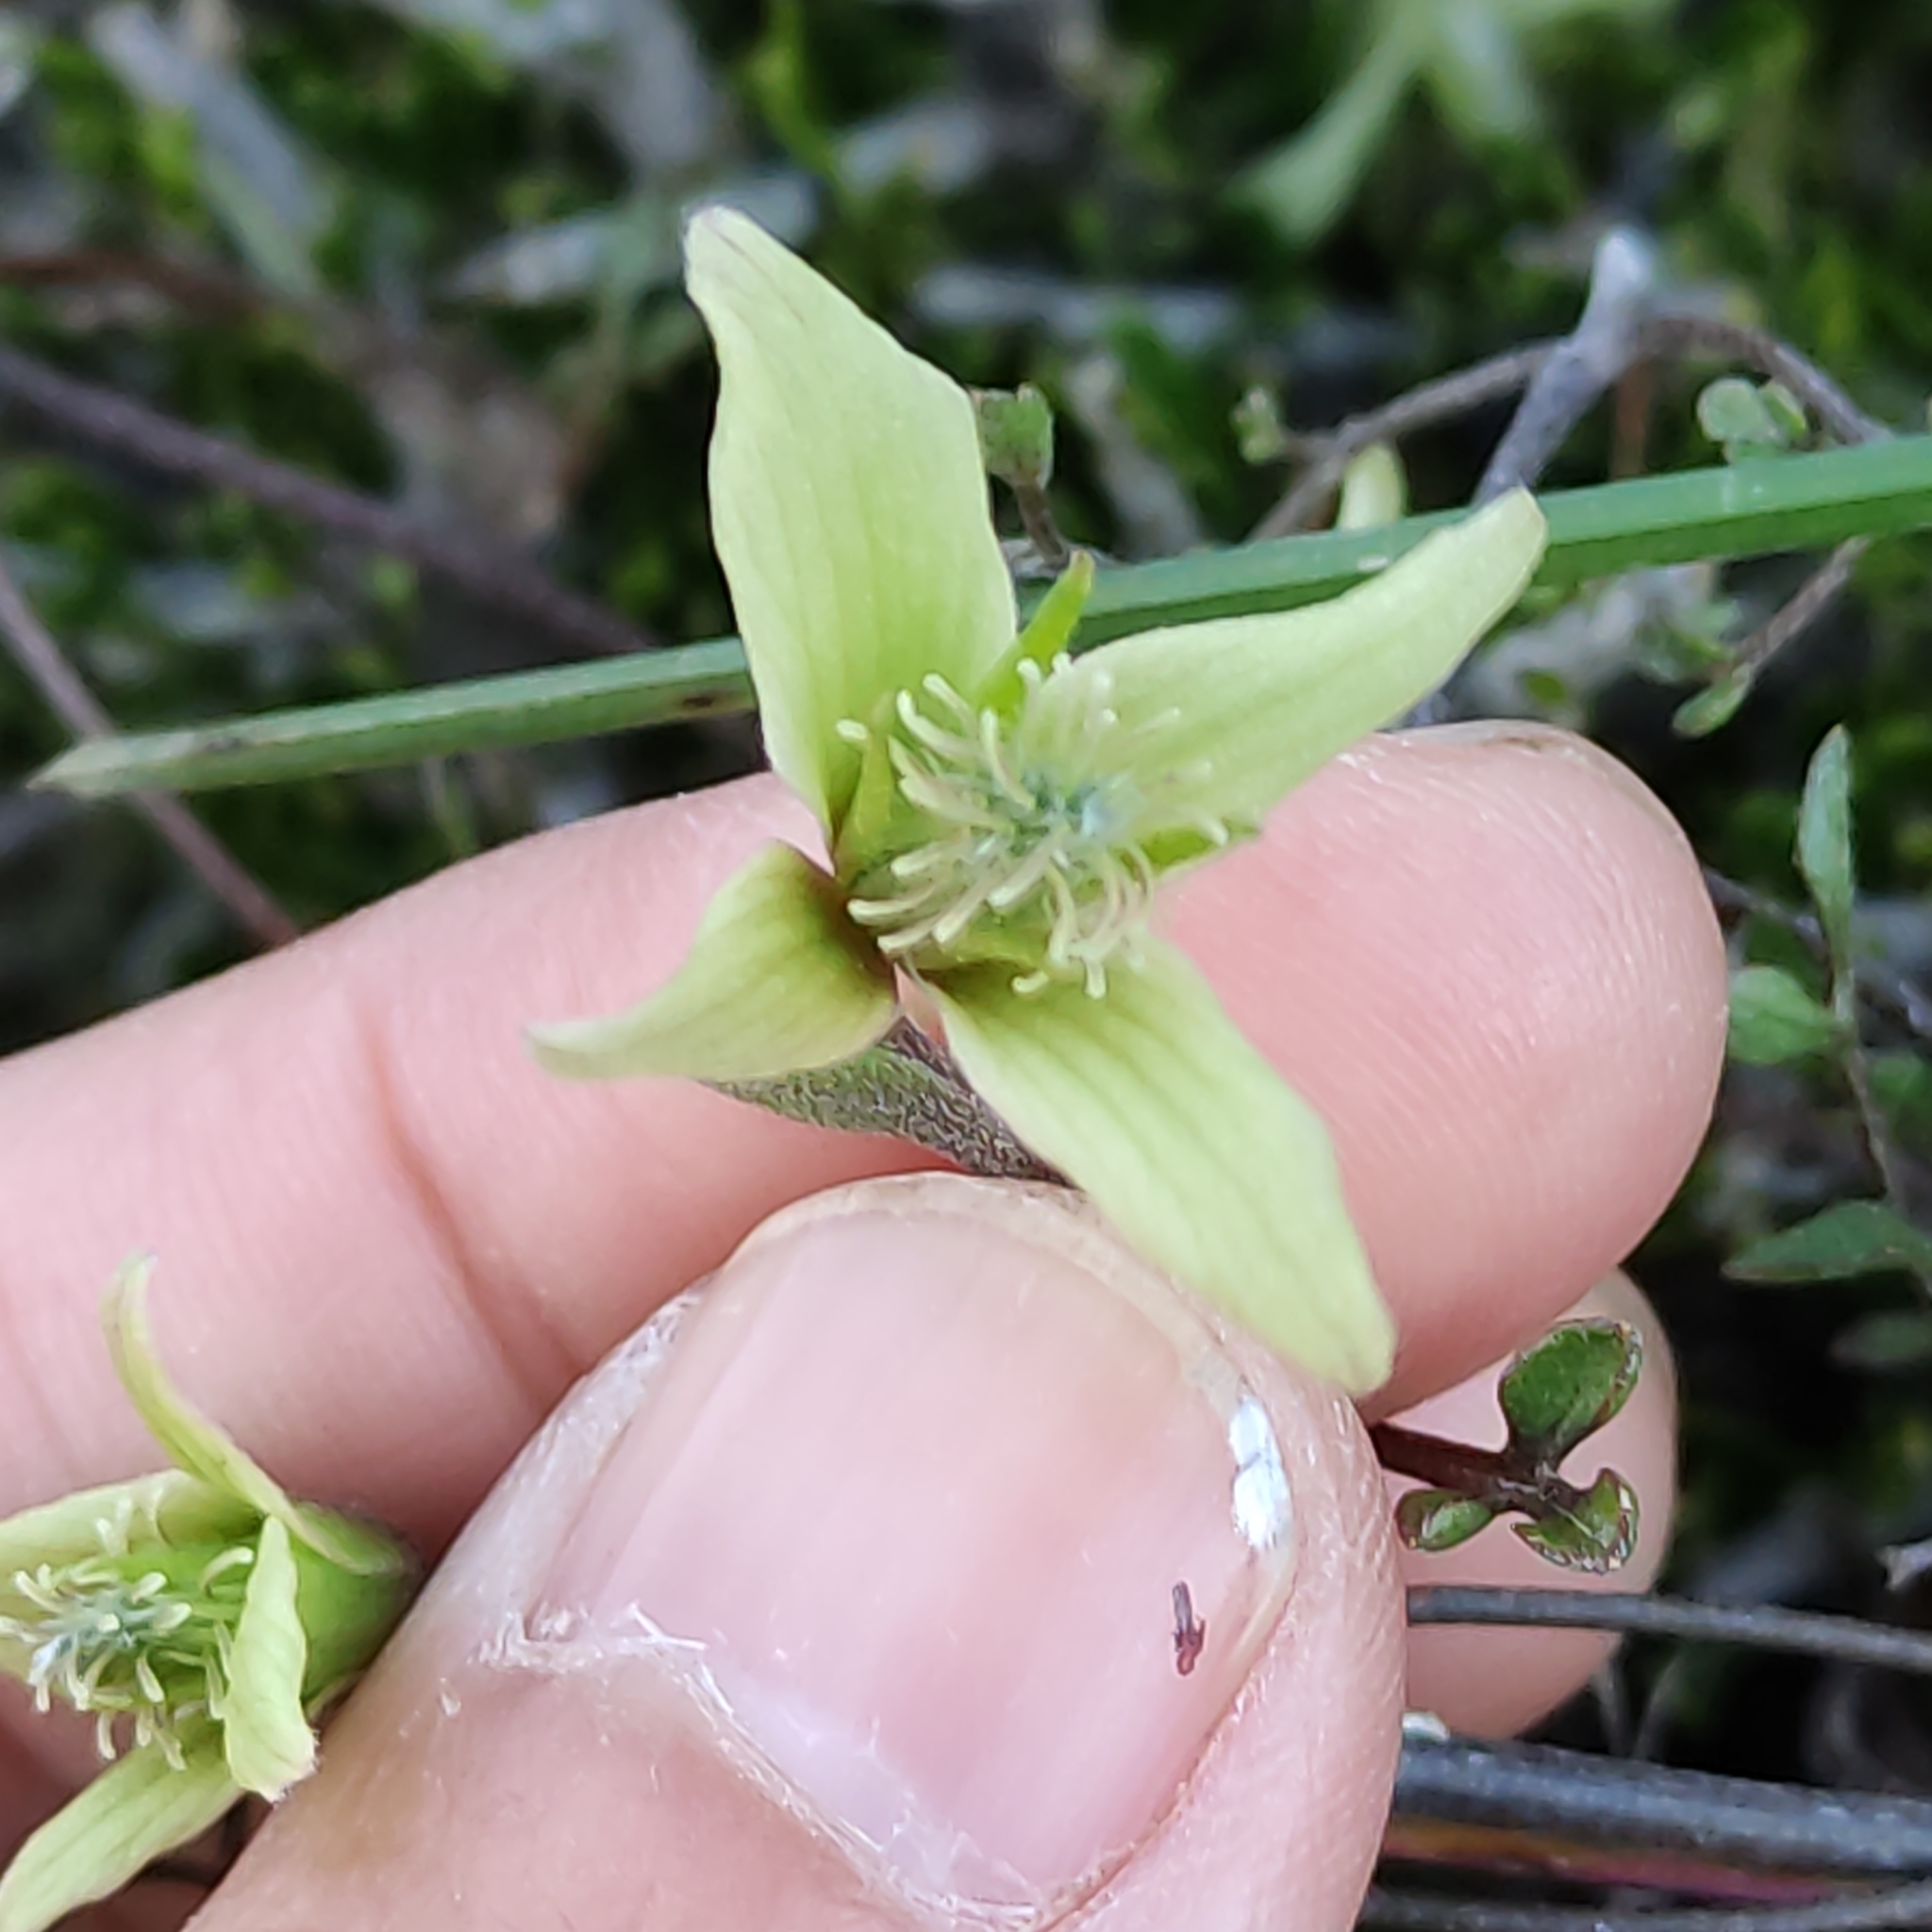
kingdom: Plantae
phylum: Tracheophyta
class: Magnoliopsida
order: Ranunculales
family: Ranunculaceae
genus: Clematis
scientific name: Clematis marata
